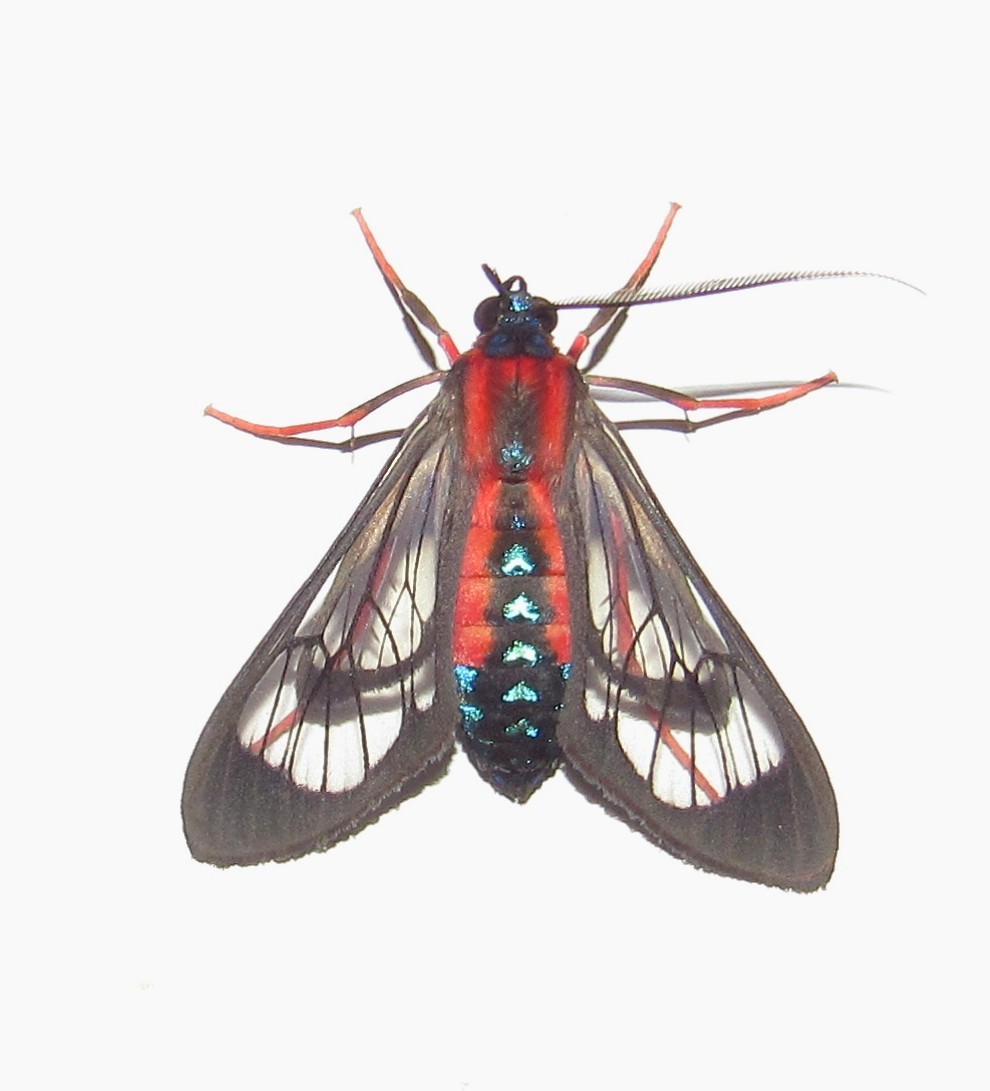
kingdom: Animalia
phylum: Arthropoda
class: Insecta
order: Lepidoptera
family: Erebidae
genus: Cosmosoma
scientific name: Cosmosoma auge
